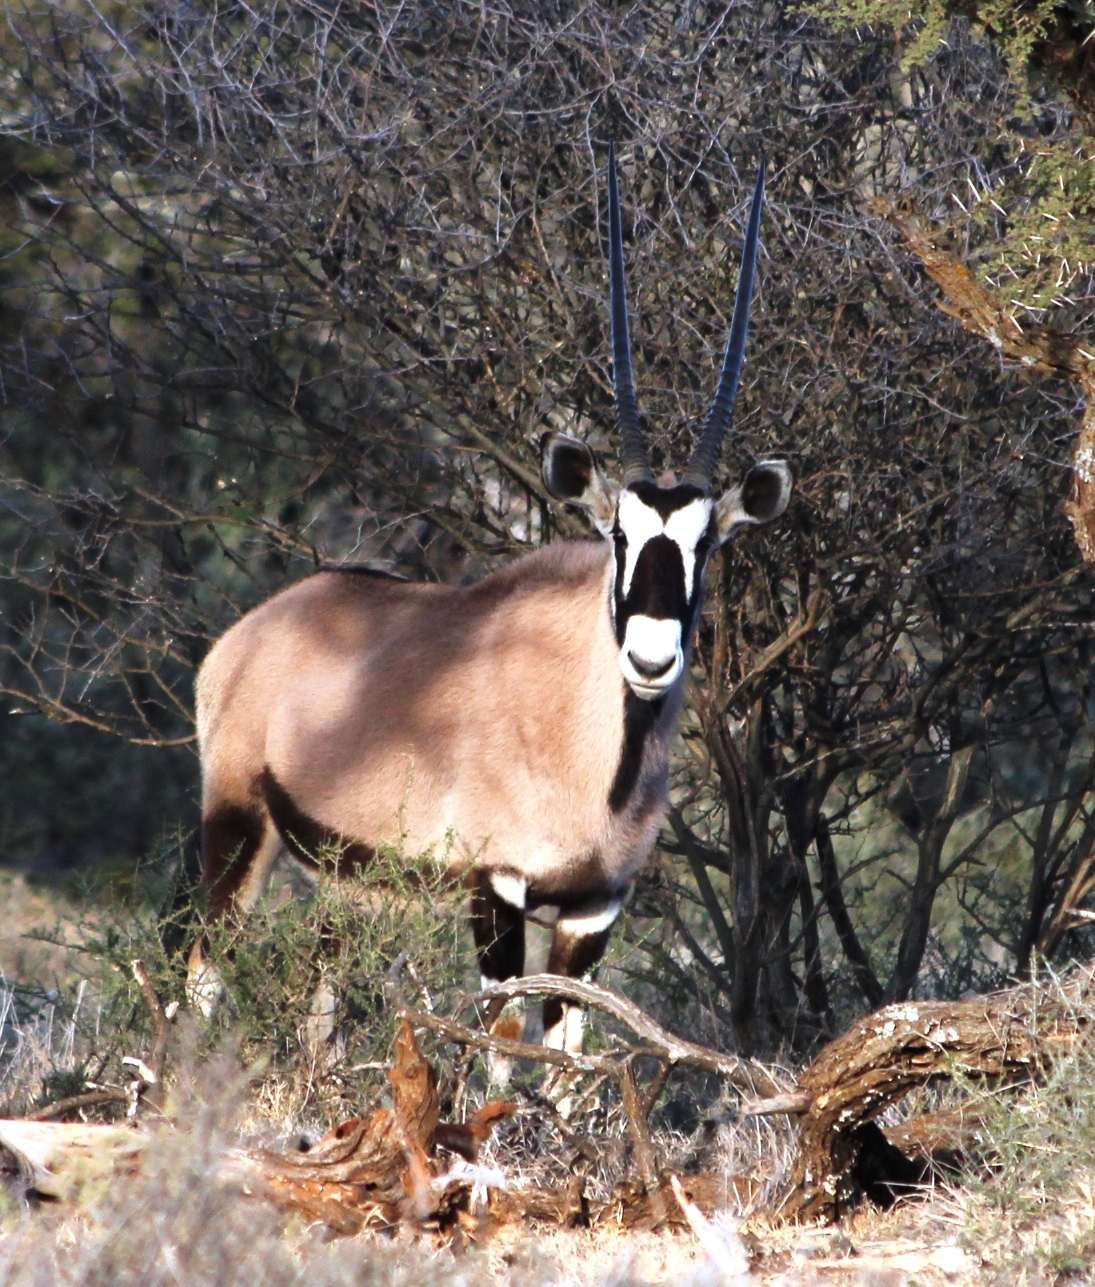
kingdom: Animalia
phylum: Chordata
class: Mammalia
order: Artiodactyla
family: Bovidae
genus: Oryx
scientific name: Oryx gazella
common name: Gemsbok
